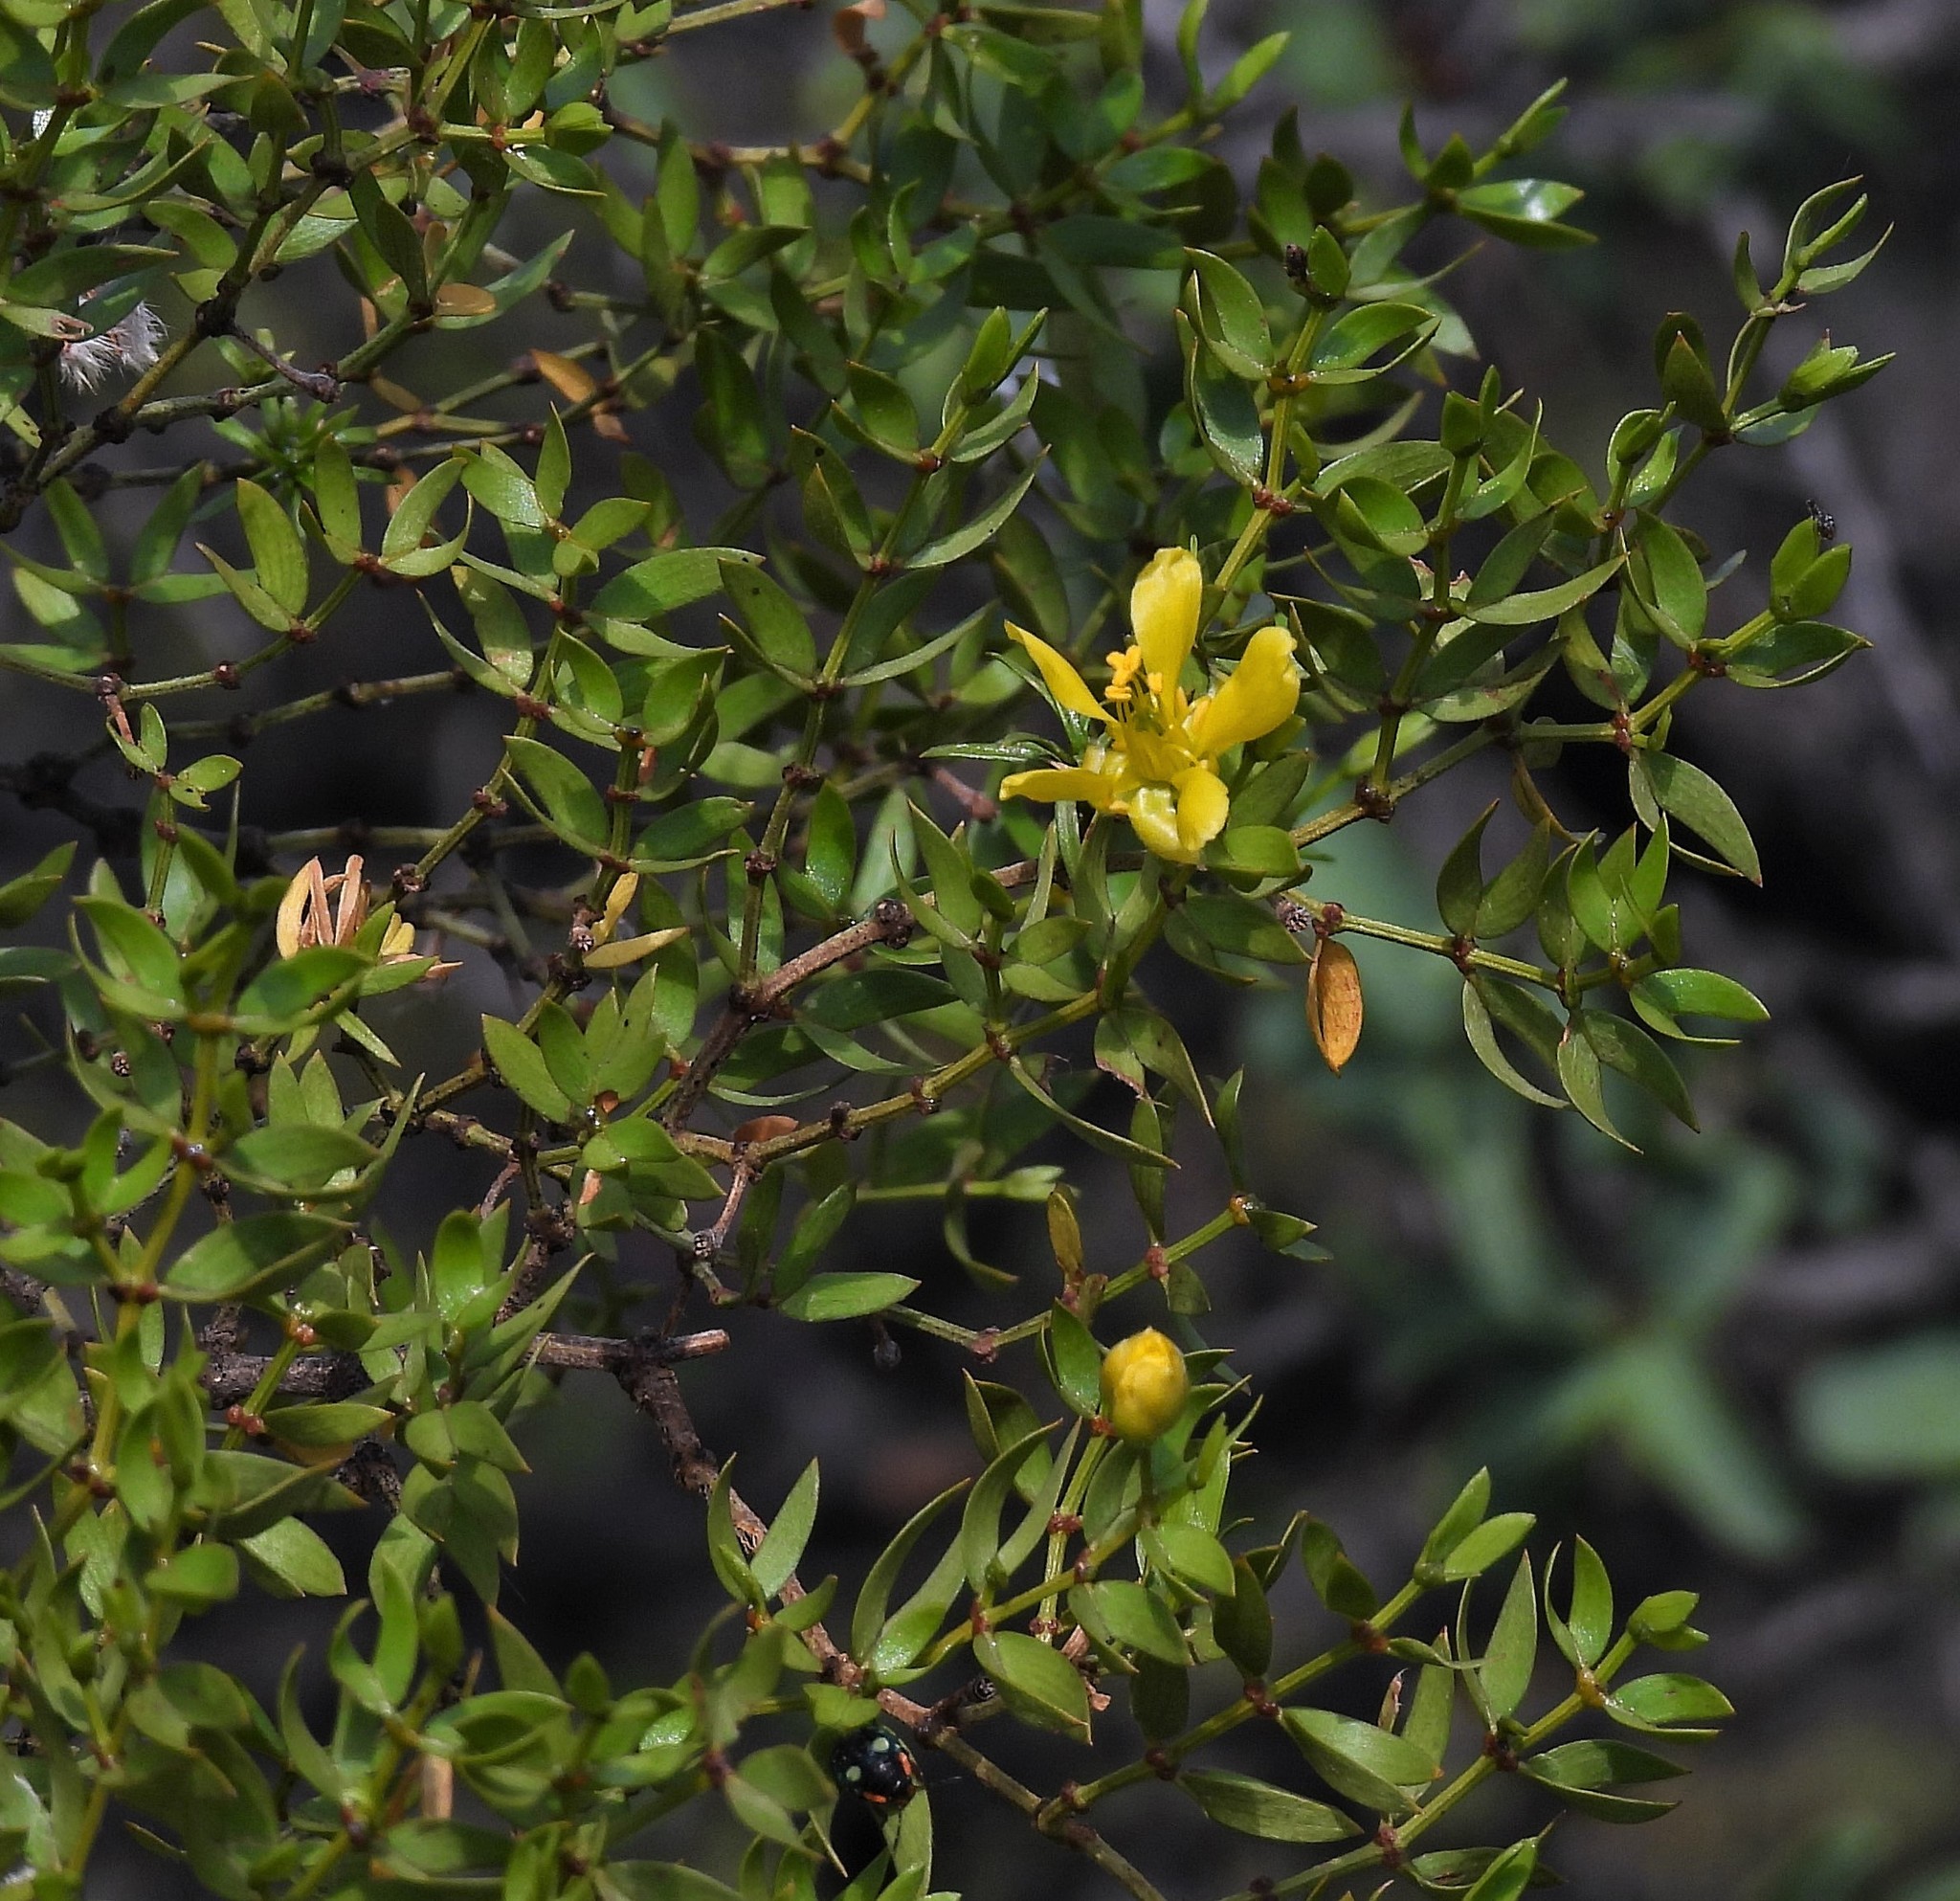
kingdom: Plantae
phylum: Tracheophyta
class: Magnoliopsida
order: Zygophyllales
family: Zygophyllaceae
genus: Larrea
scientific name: Larrea divaricata
